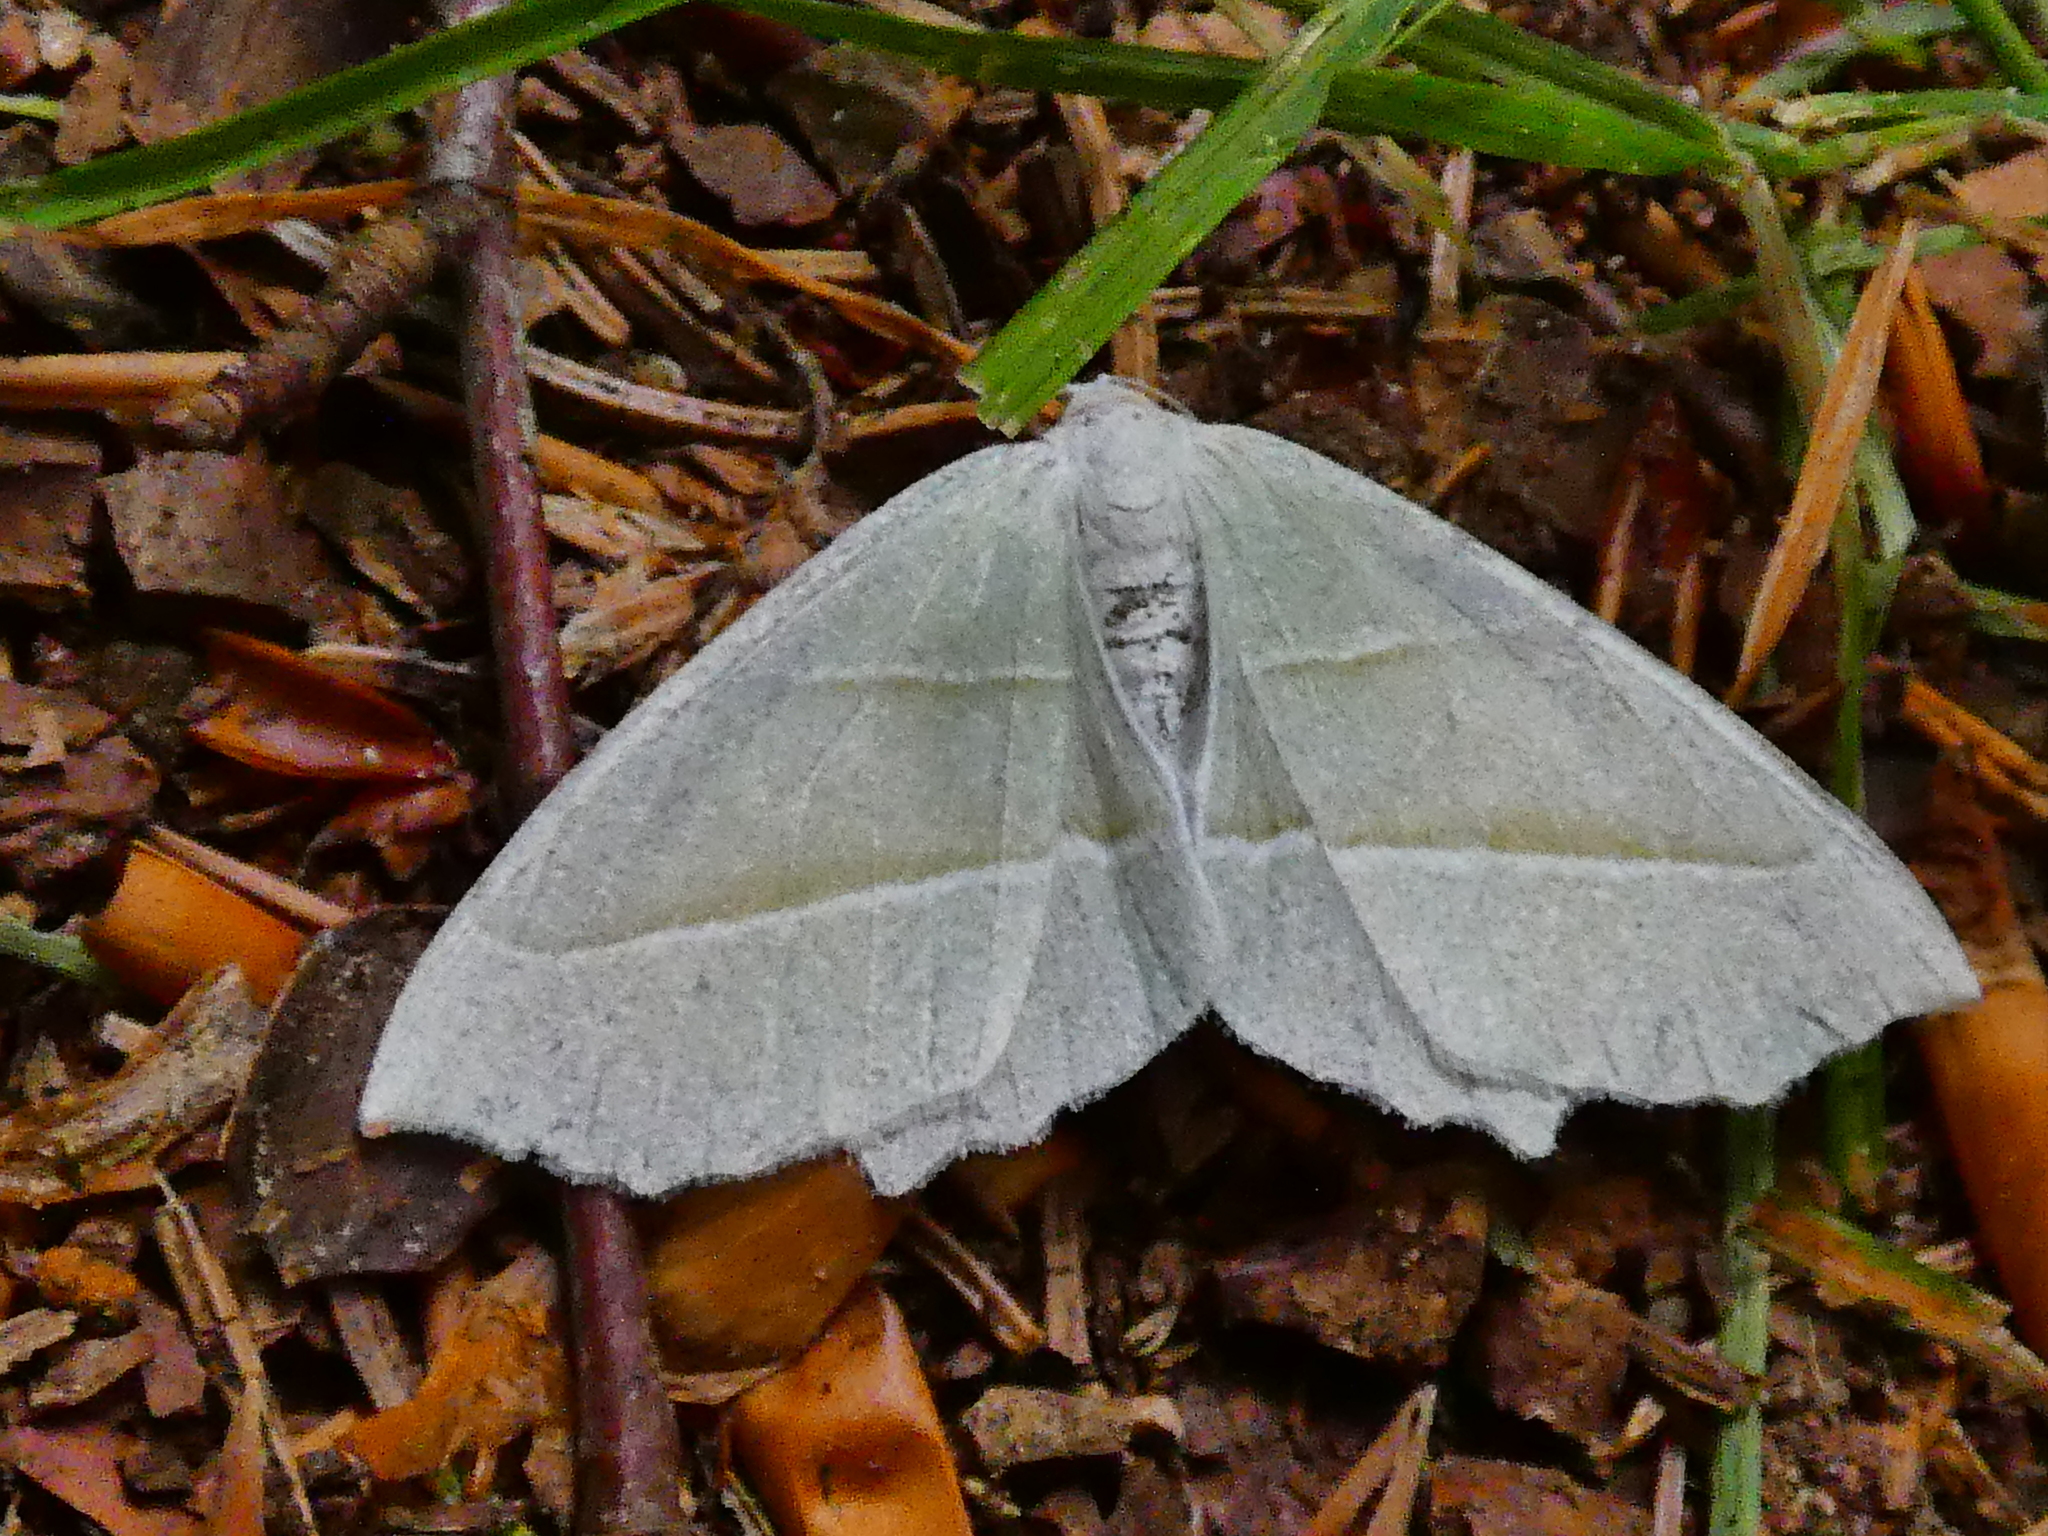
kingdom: Animalia
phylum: Arthropoda
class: Insecta
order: Lepidoptera
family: Geometridae
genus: Campaea
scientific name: Campaea margaritaria
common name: Light emerald
